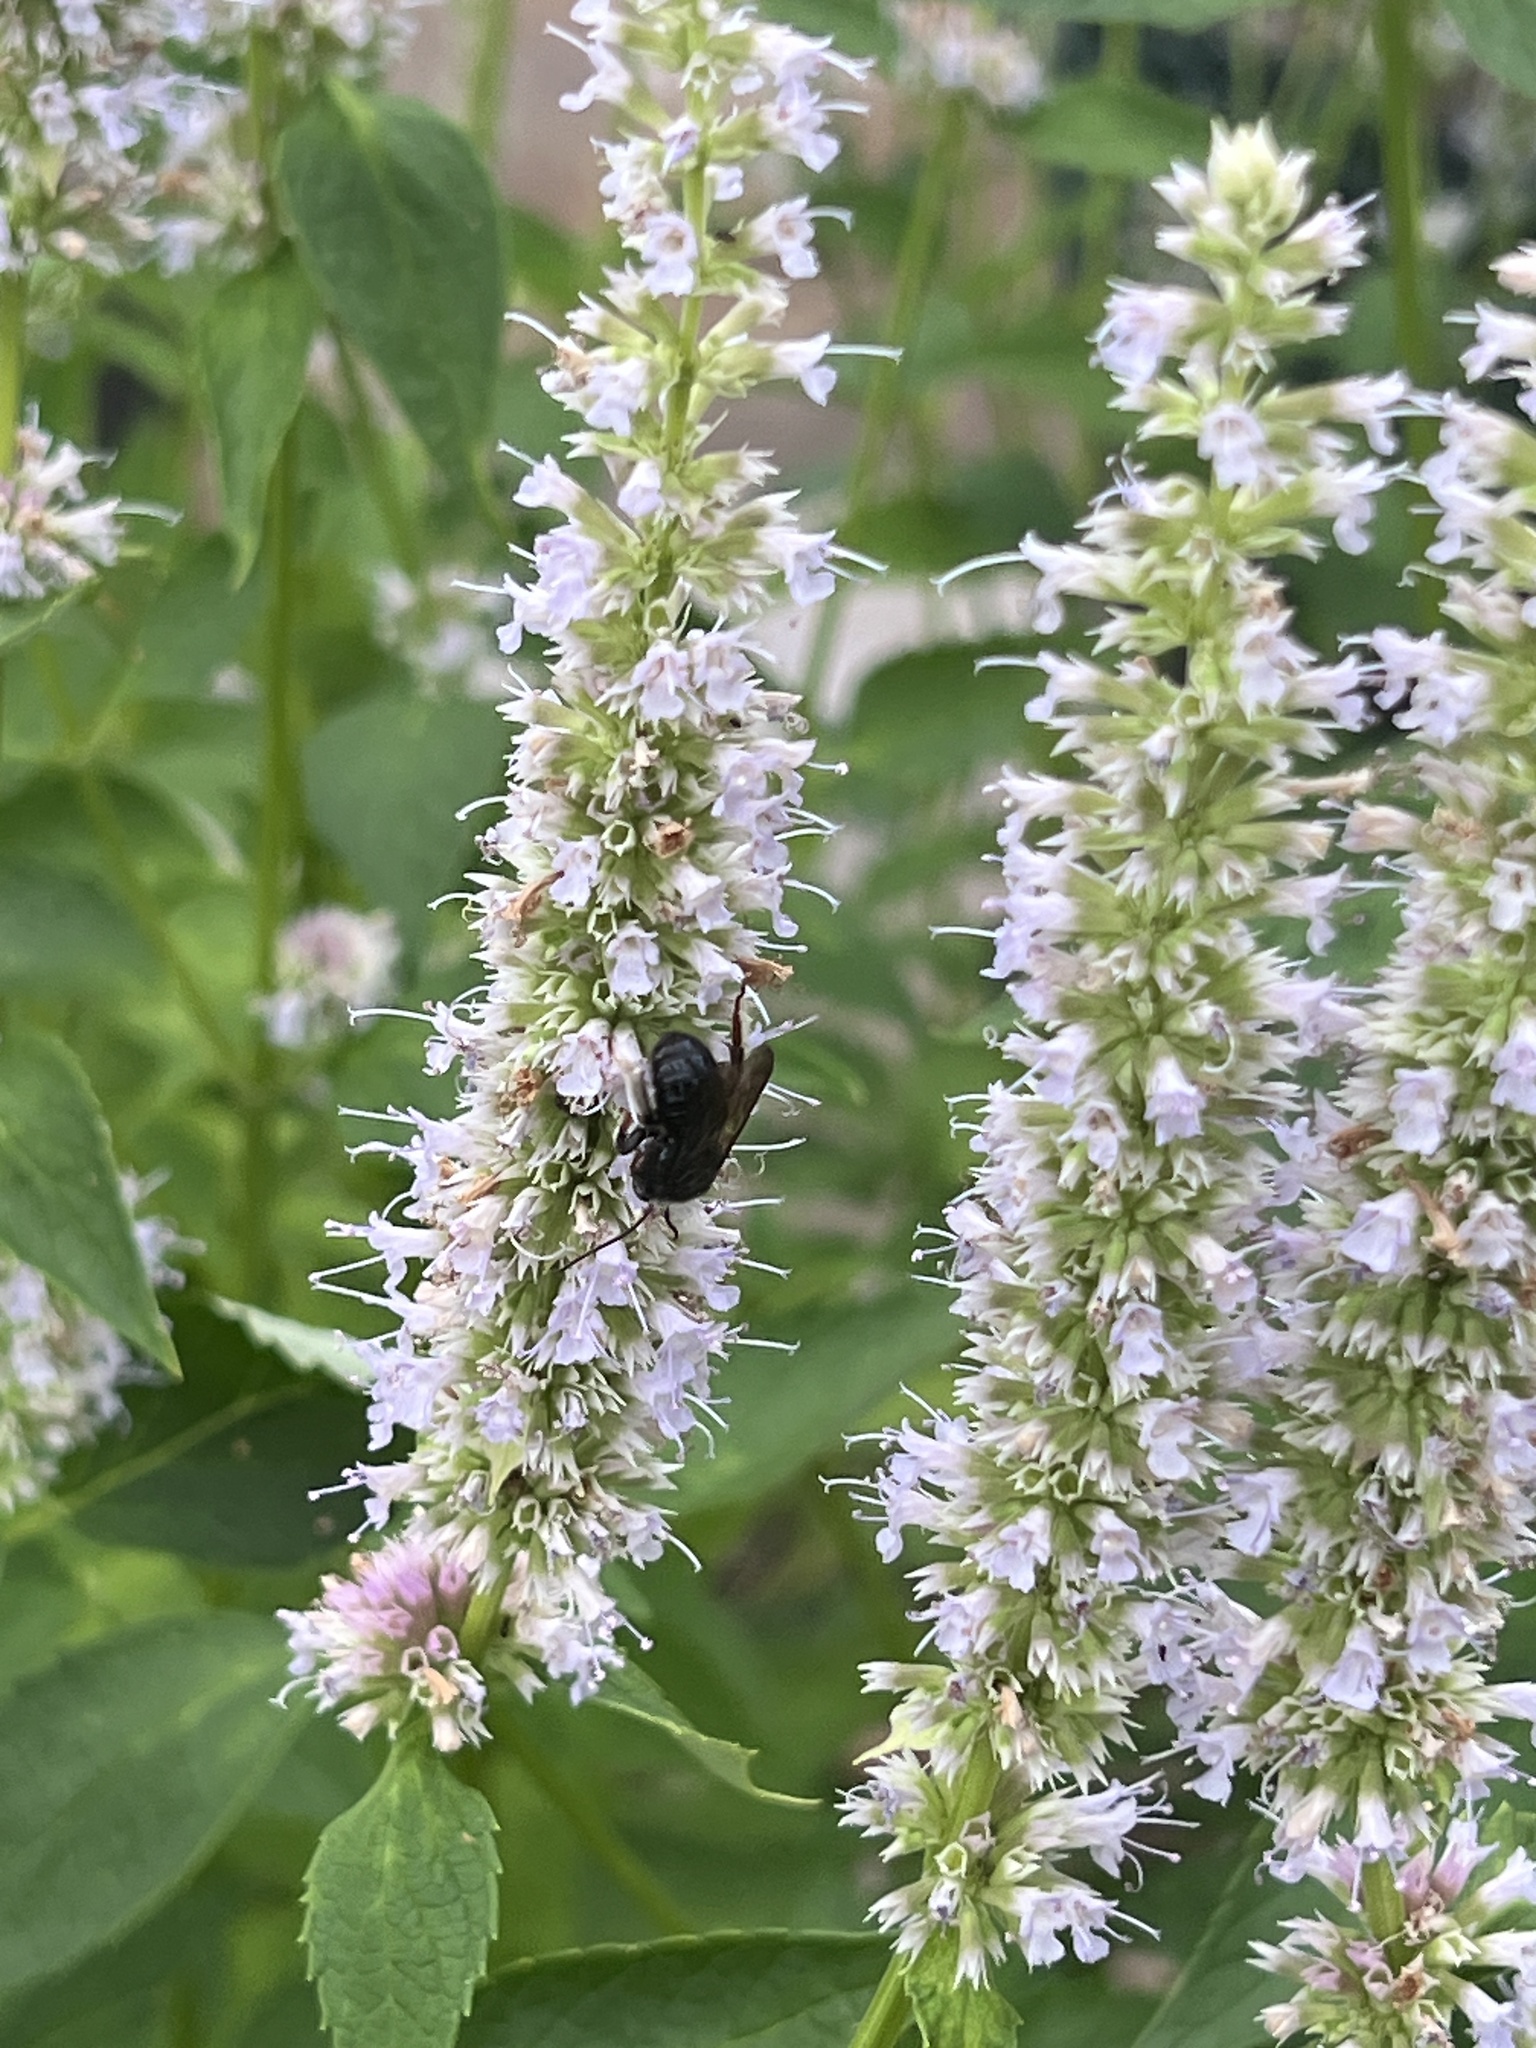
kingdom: Animalia
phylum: Arthropoda
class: Insecta
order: Hymenoptera
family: Apidae
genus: Melissodes
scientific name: Melissodes bimaculatus
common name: Two-spotted long-horned bee
